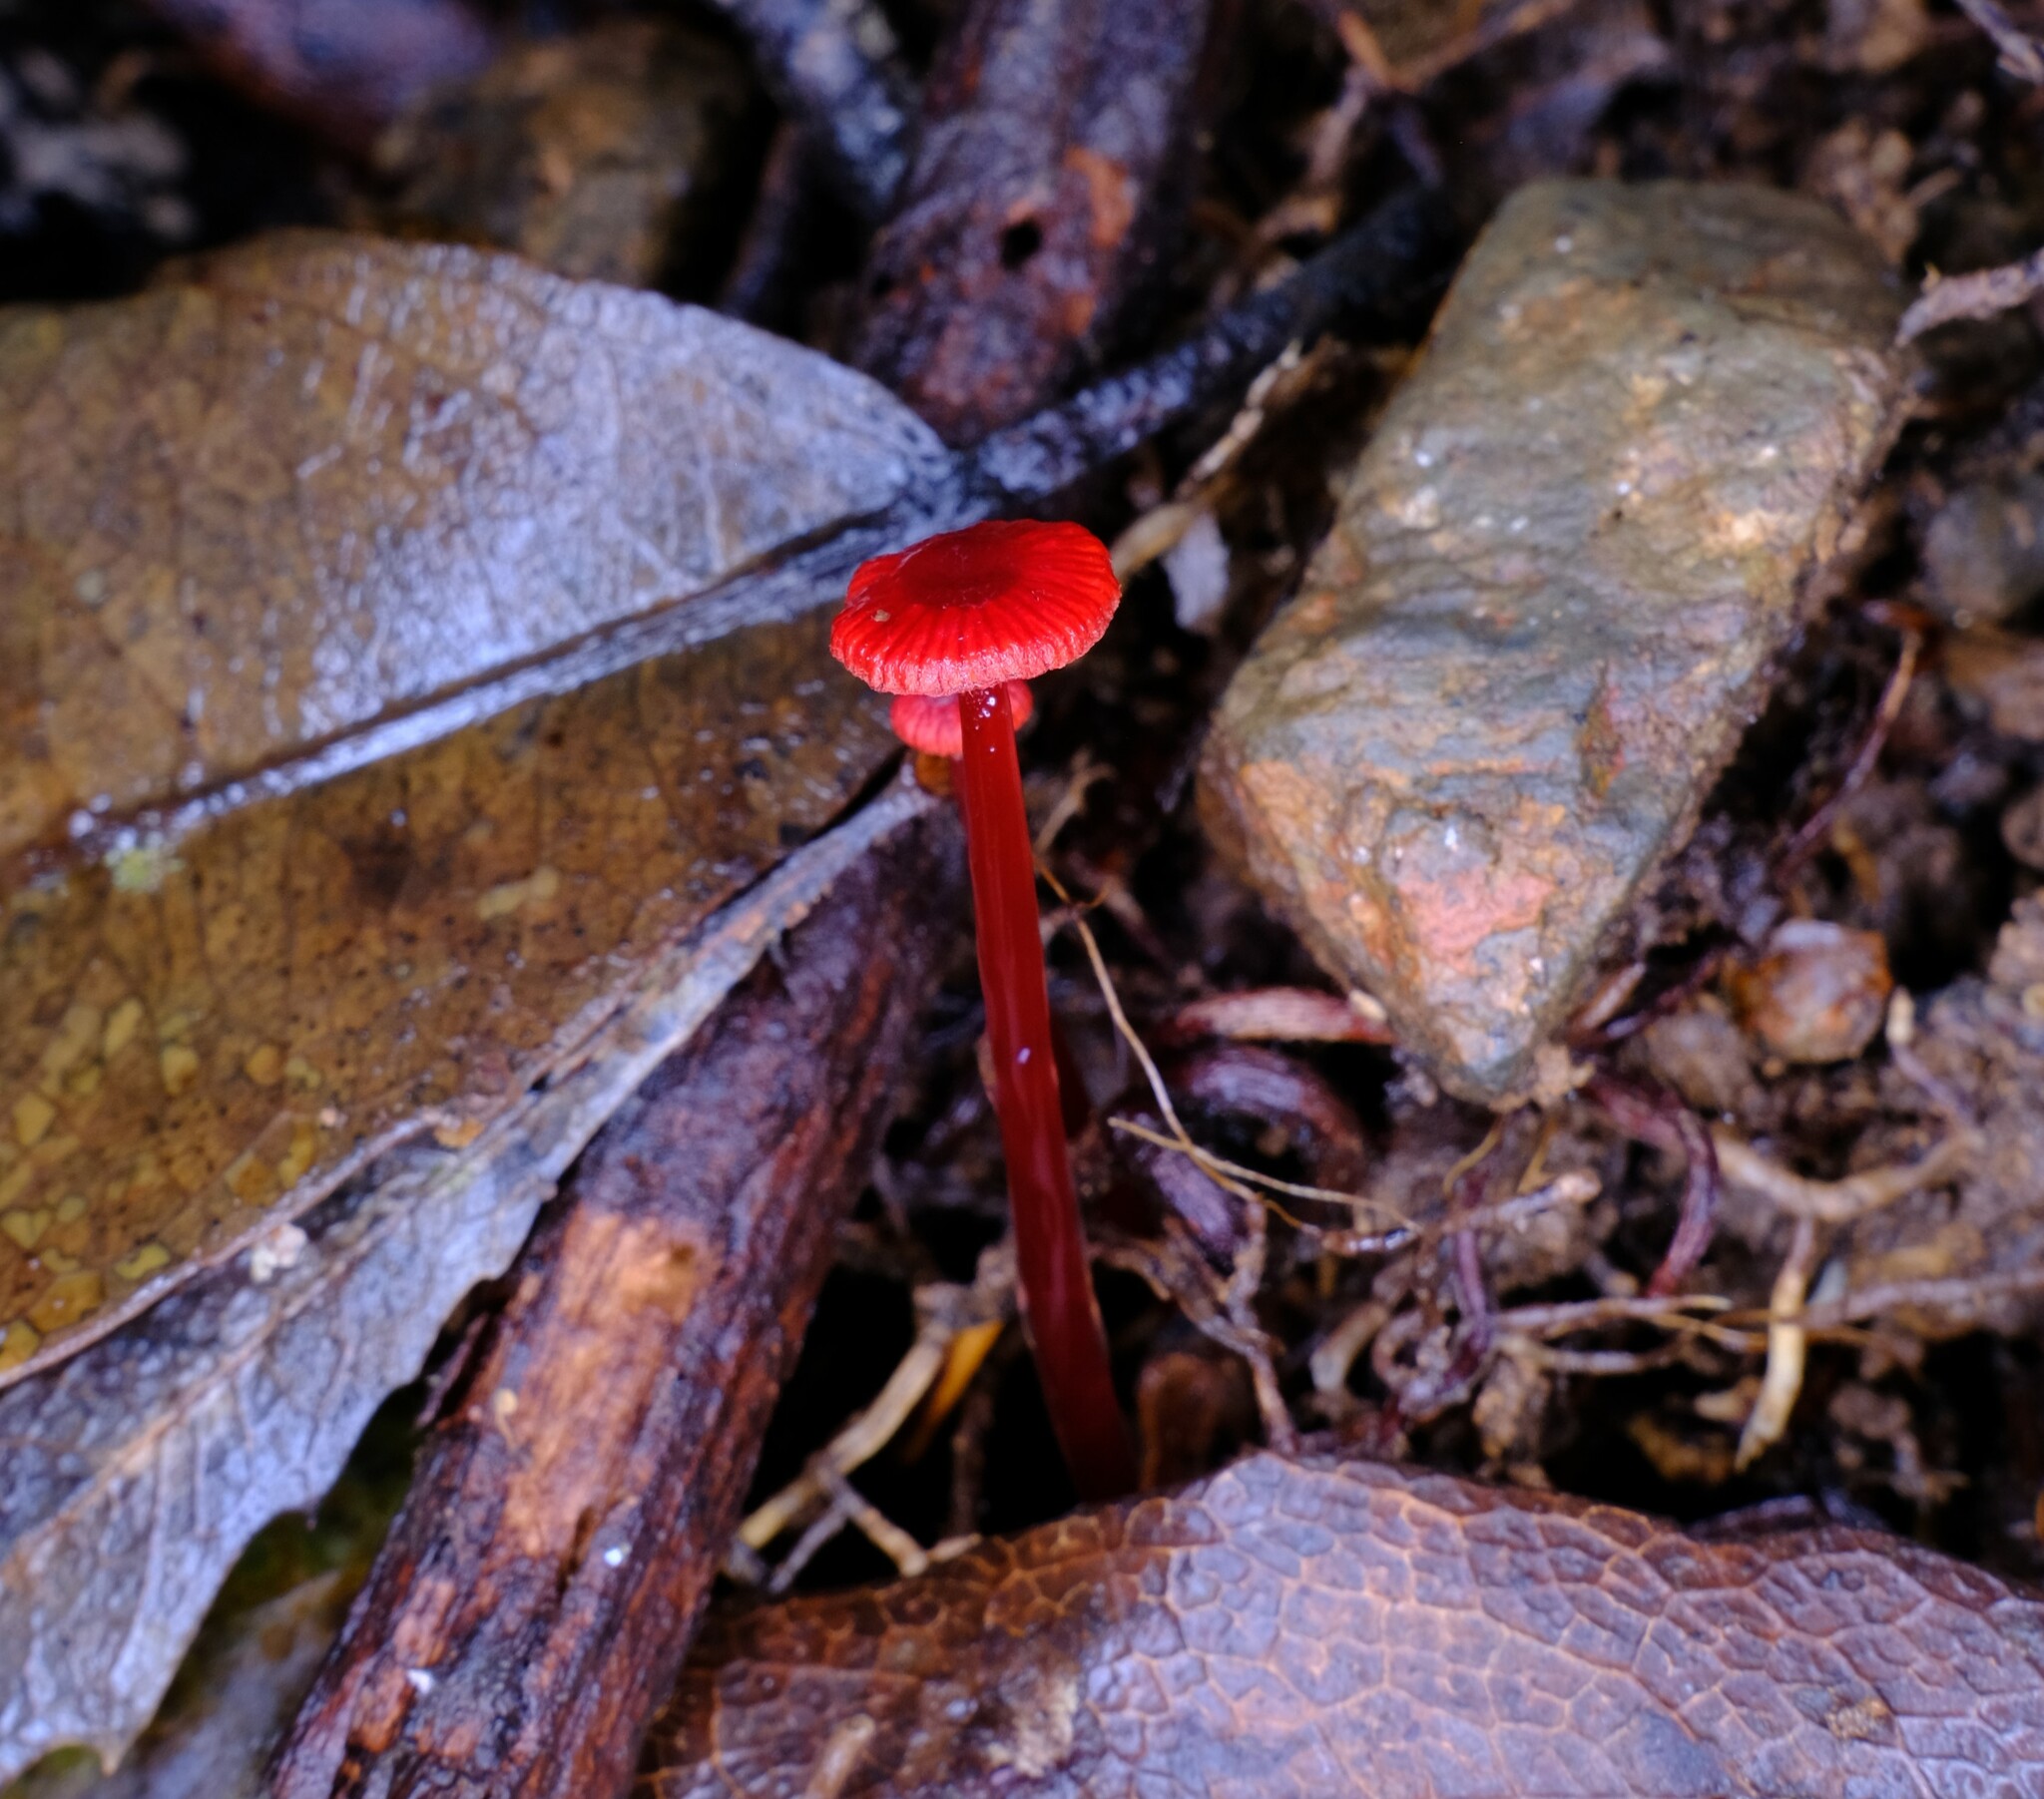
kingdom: Fungi
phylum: Basidiomycota
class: Agaricomycetes
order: Agaricales
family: Mycenaceae
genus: Cruentomycena
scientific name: Cruentomycena viscidocruenta
